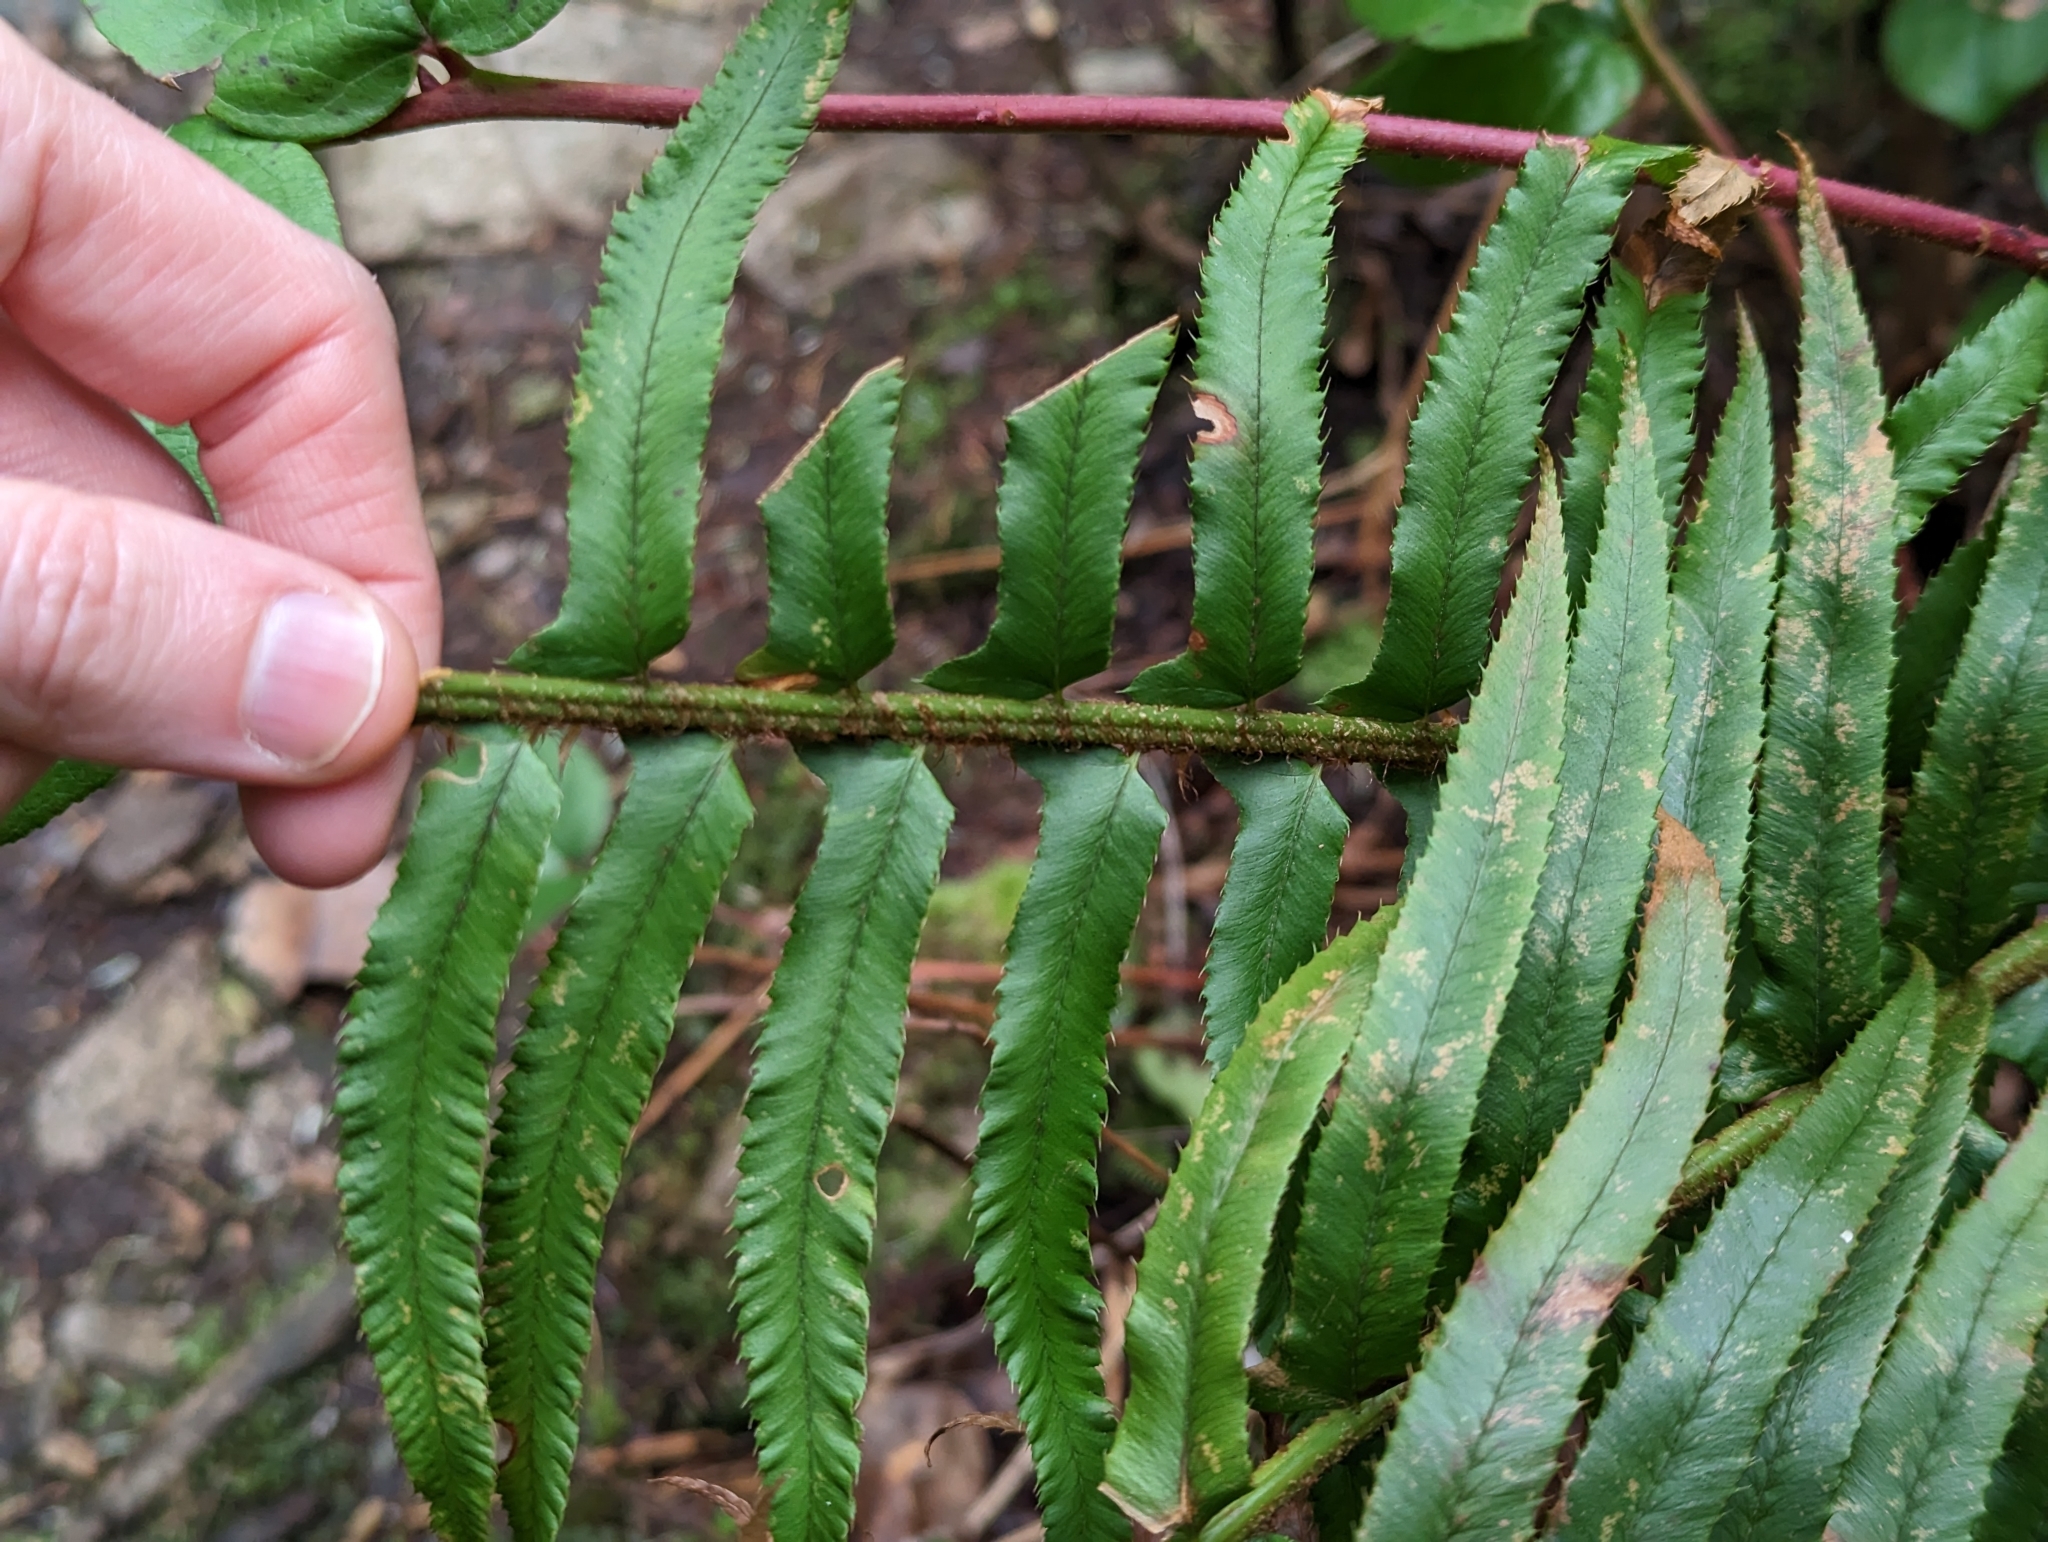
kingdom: Plantae
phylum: Tracheophyta
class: Polypodiopsida
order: Polypodiales
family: Dryopteridaceae
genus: Polystichum
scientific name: Polystichum munitum
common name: Western sword-fern
